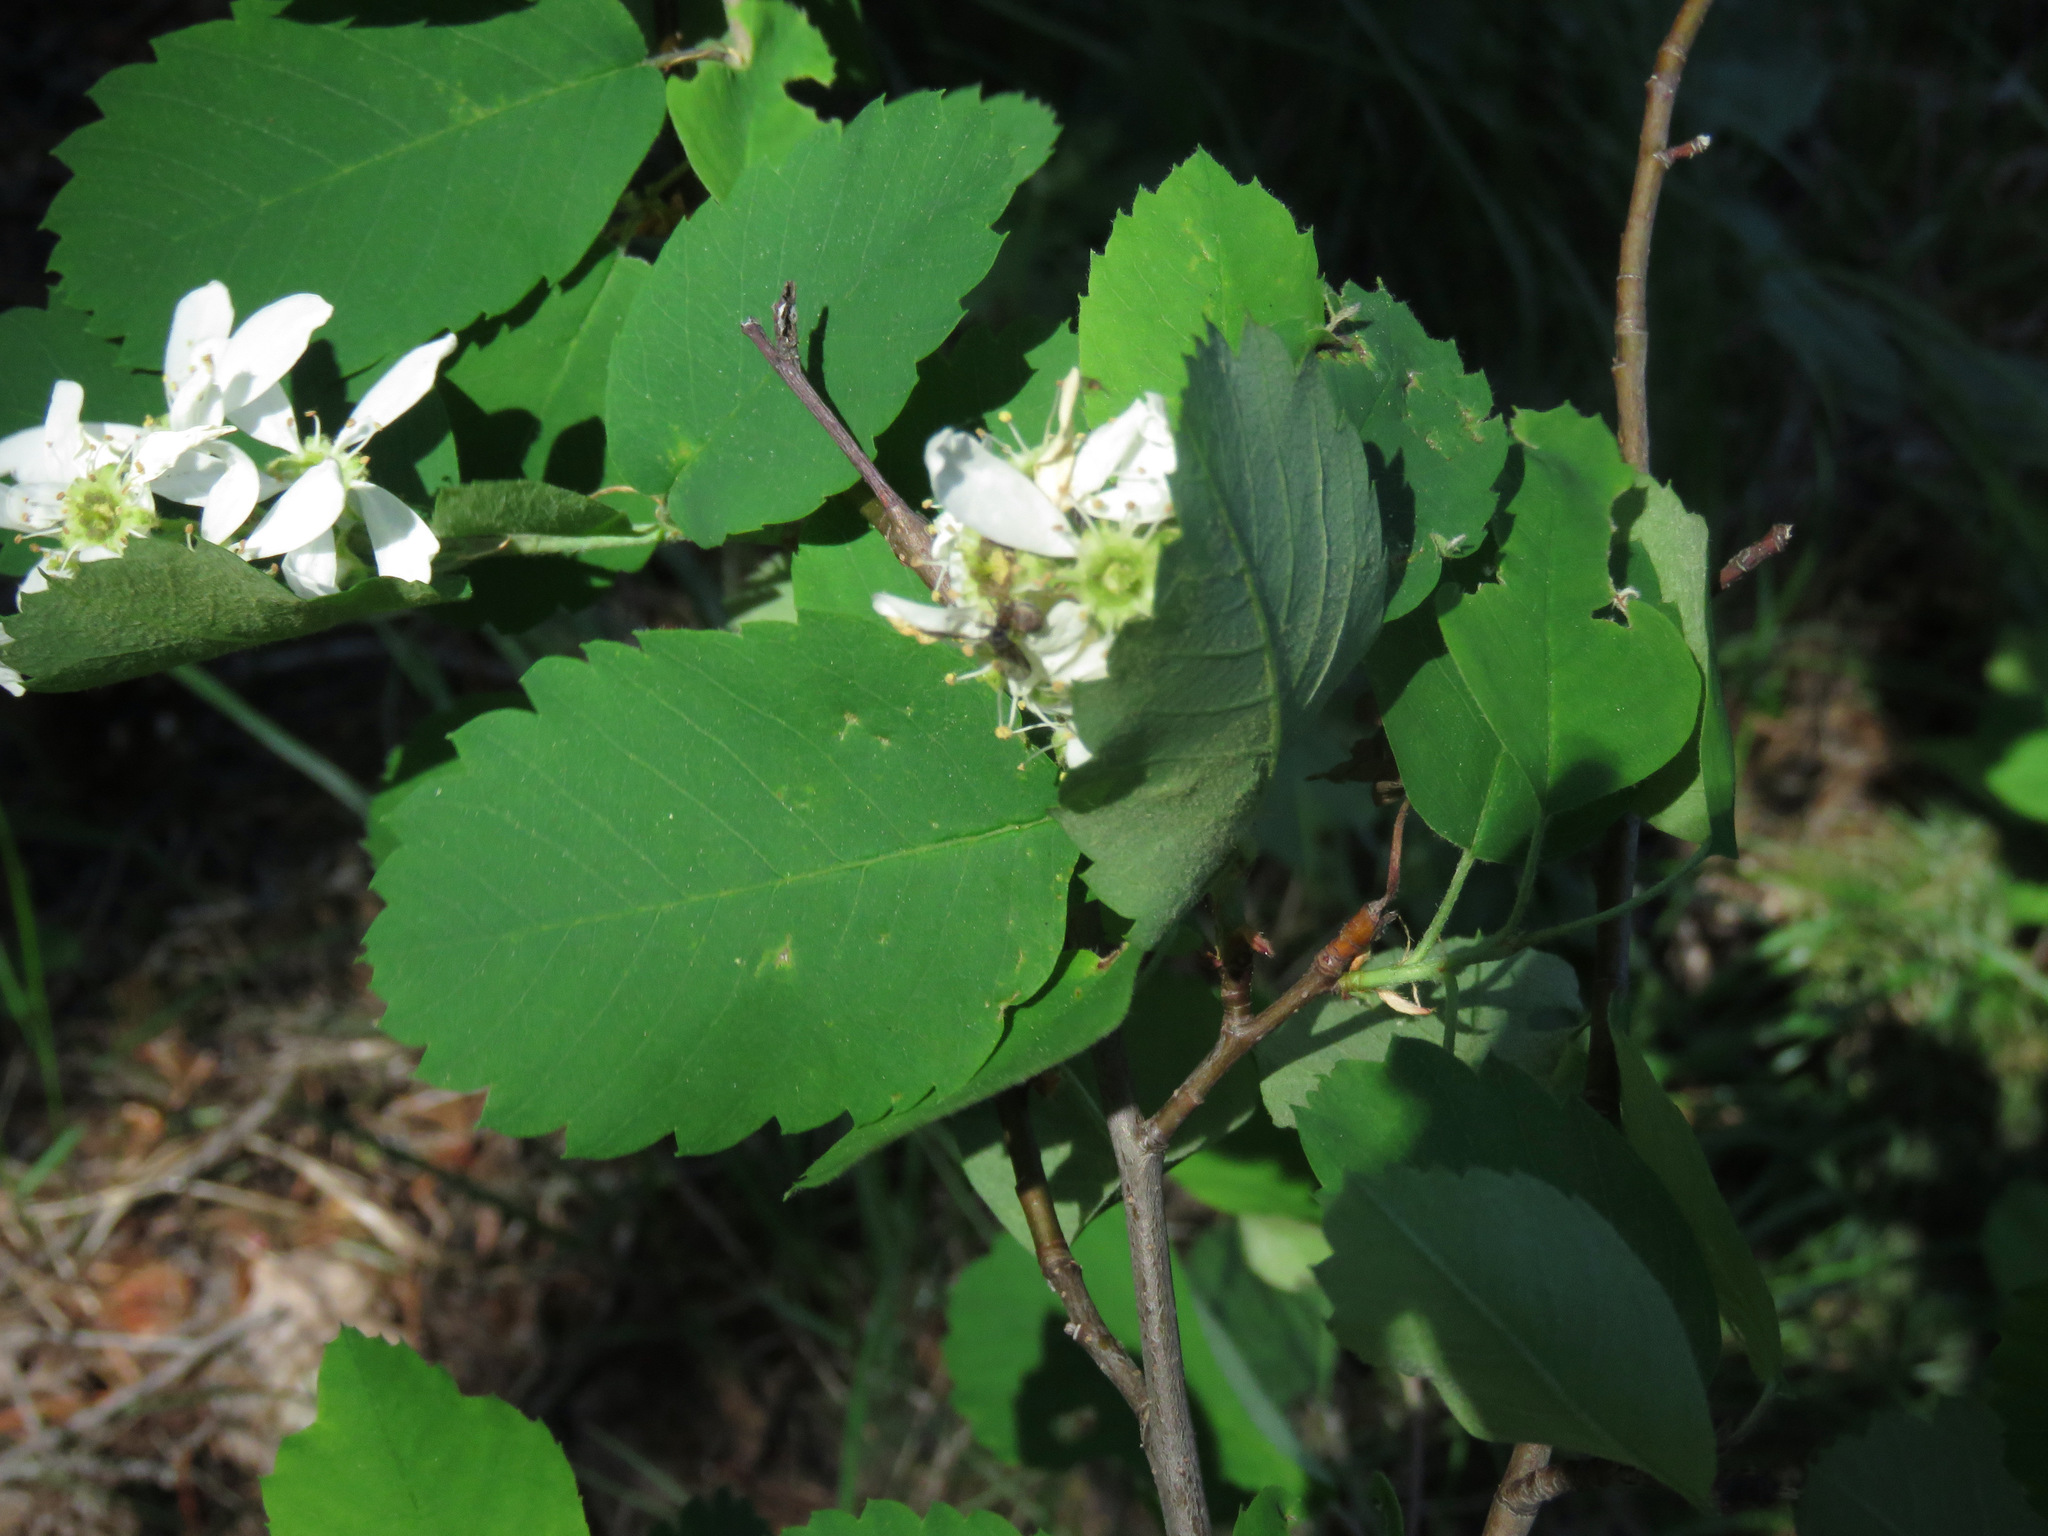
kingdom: Plantae
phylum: Tracheophyta
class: Magnoliopsida
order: Rosales
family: Rosaceae
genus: Amelanchier
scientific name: Amelanchier alnifolia
